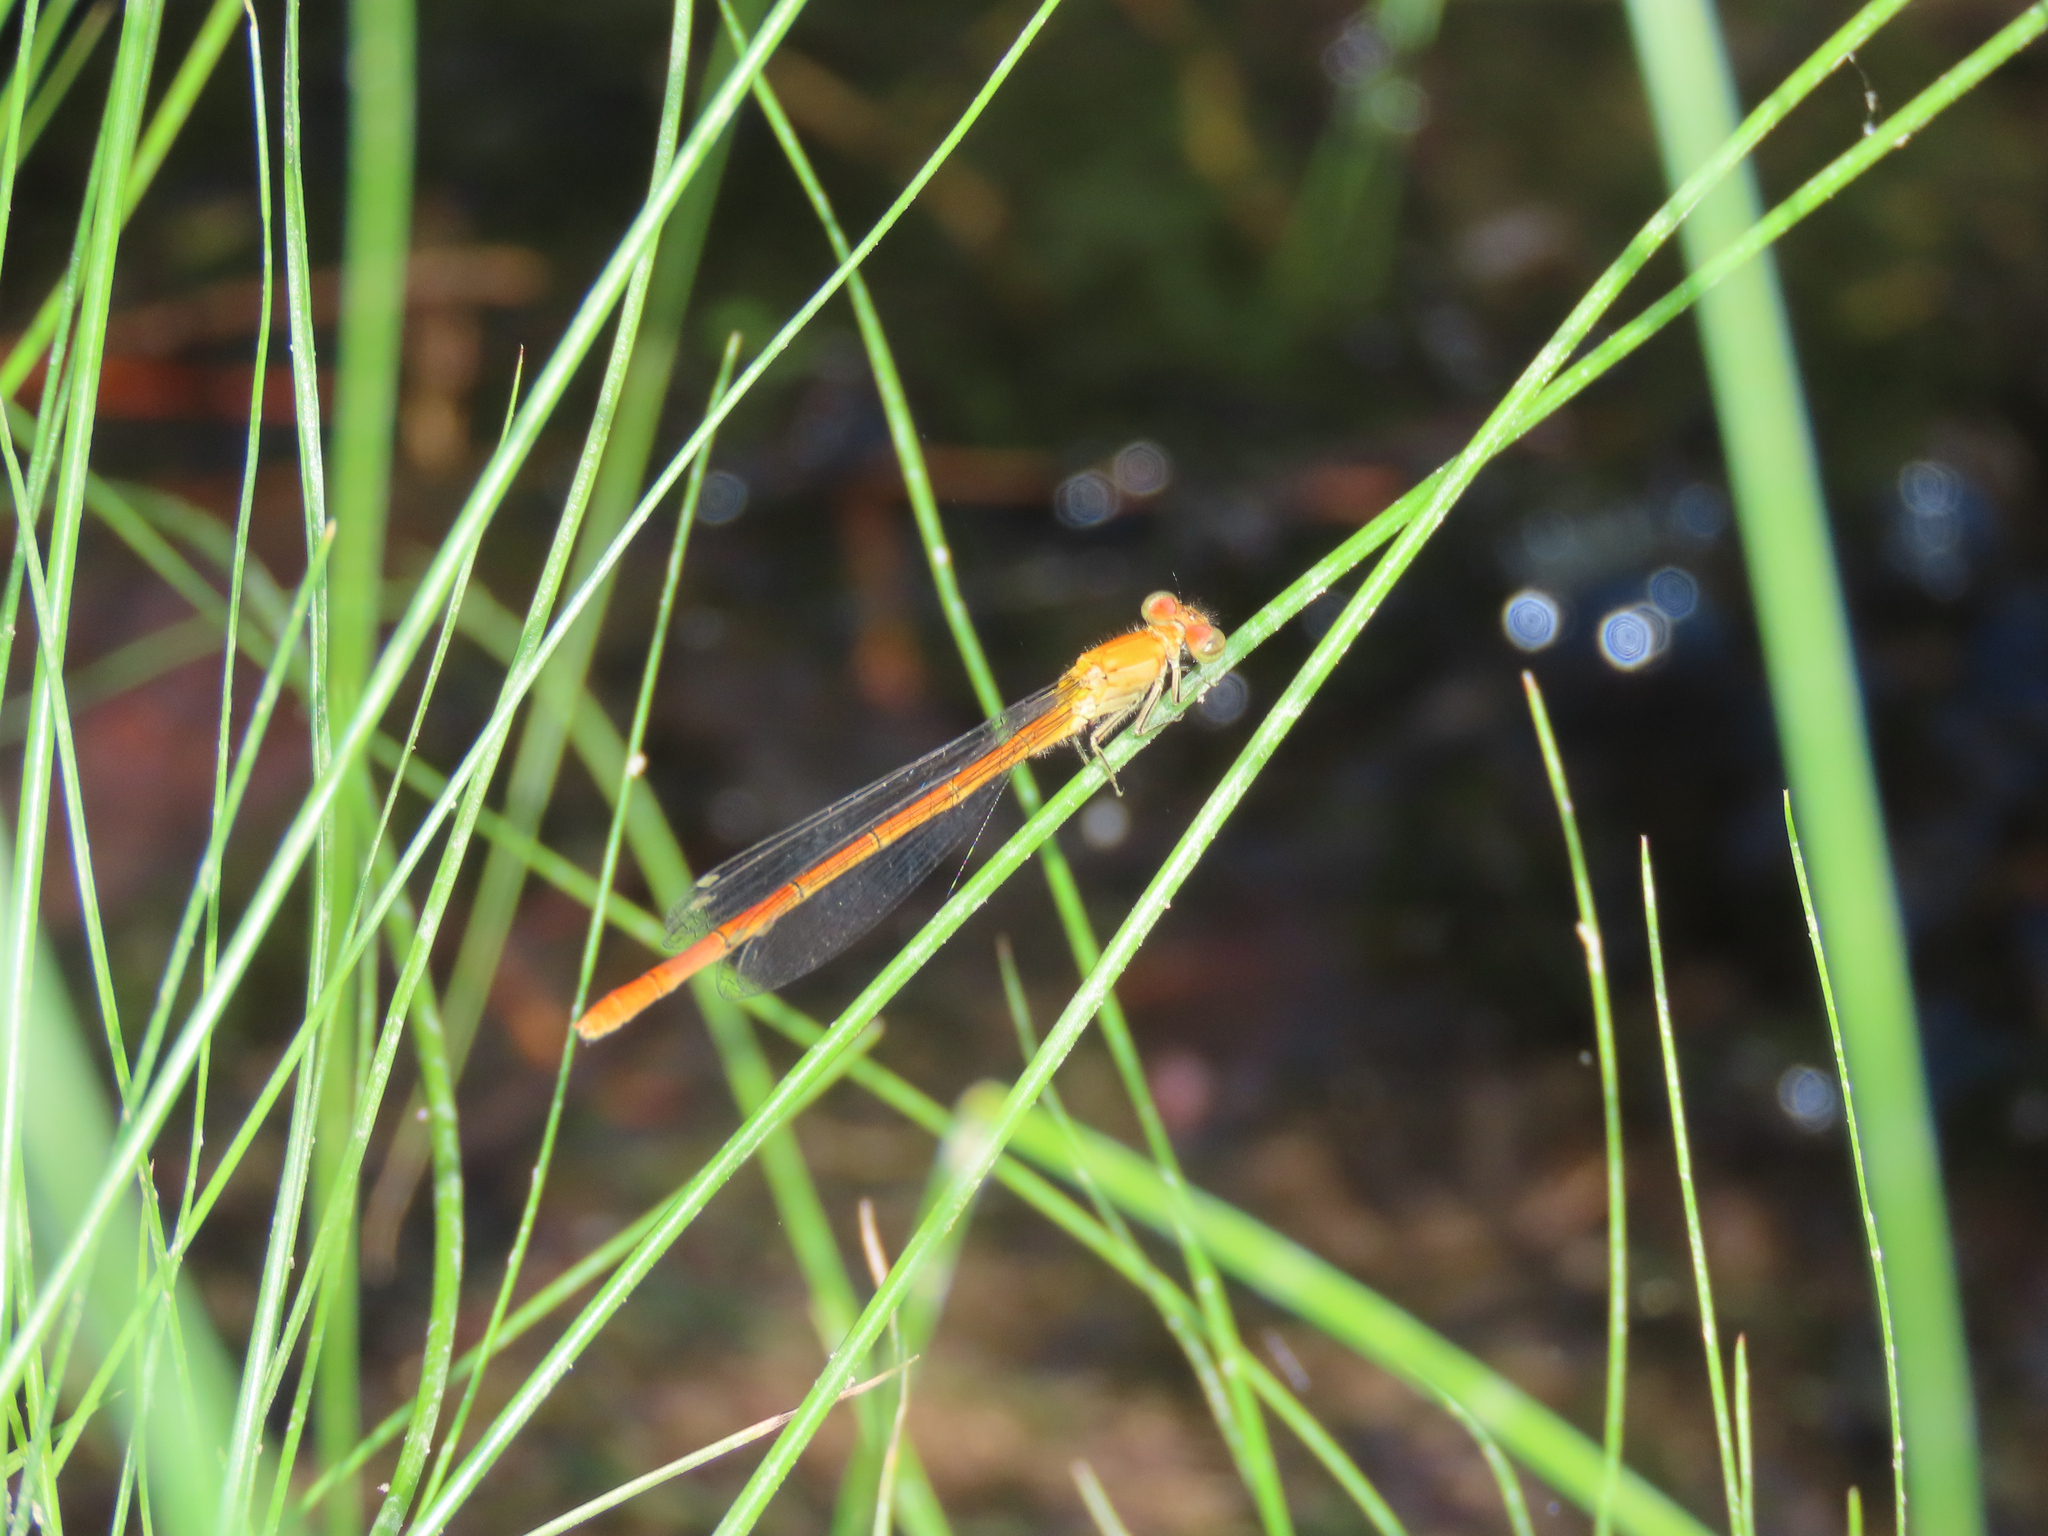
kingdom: Animalia
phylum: Arthropoda
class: Insecta
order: Odonata
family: Coenagrionidae
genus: Hesperagrion
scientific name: Hesperagrion heterodoxum
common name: Painted damsel
